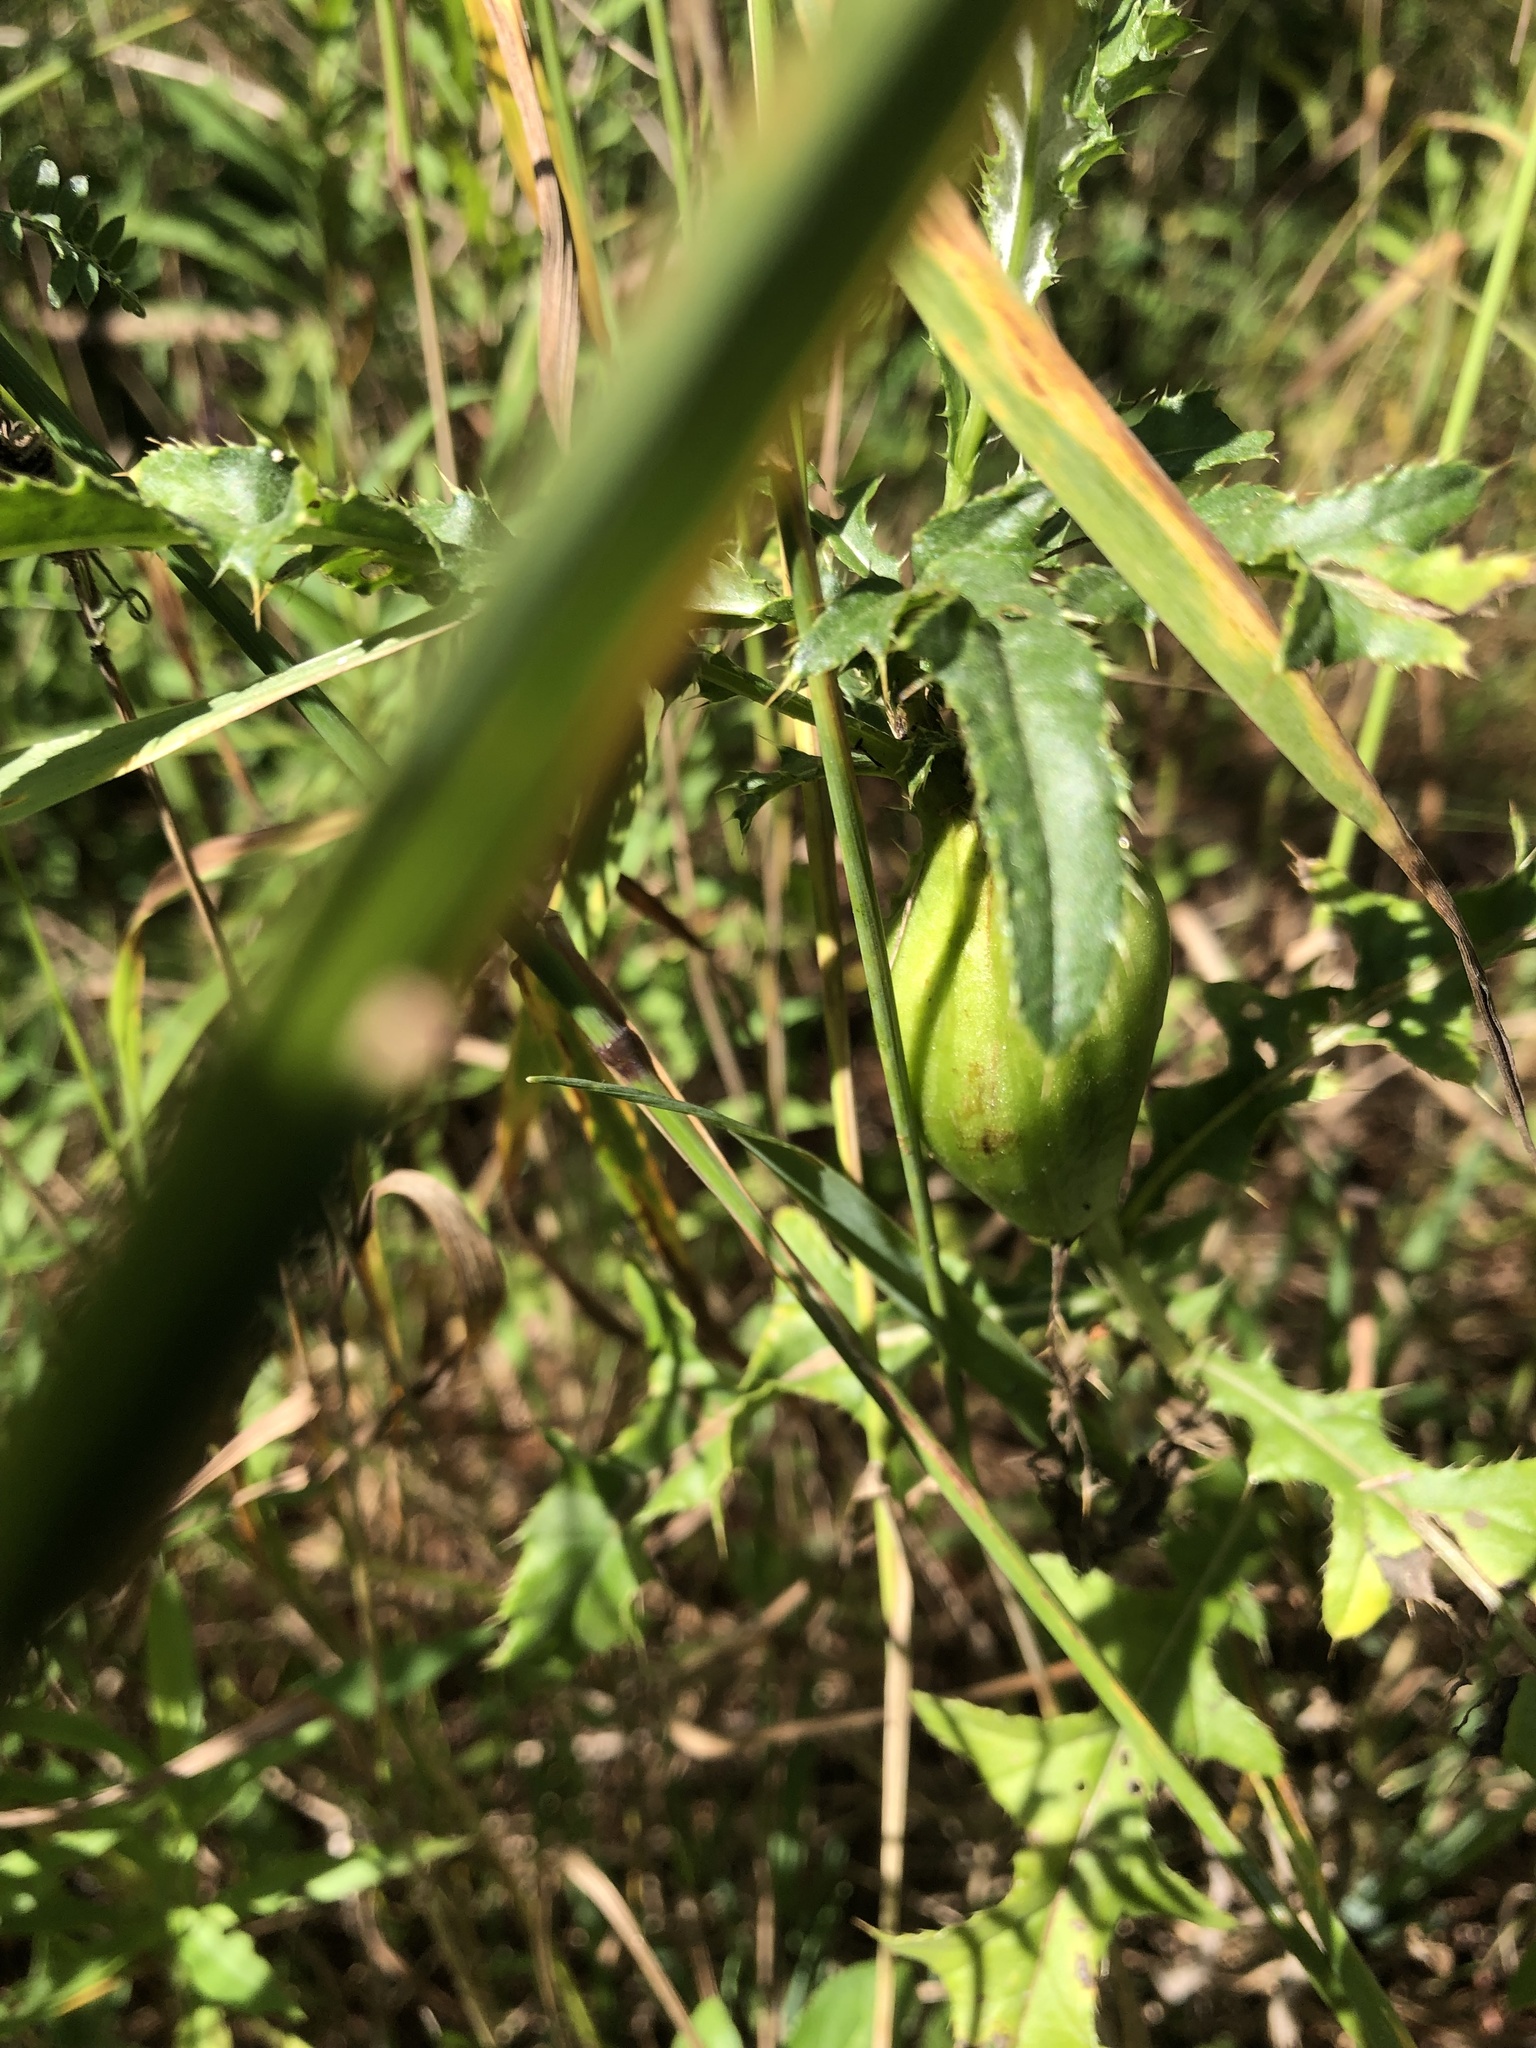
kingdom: Animalia
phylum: Arthropoda
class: Insecta
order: Diptera
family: Tephritidae
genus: Urophora
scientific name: Urophora cardui
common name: Fruit fly
